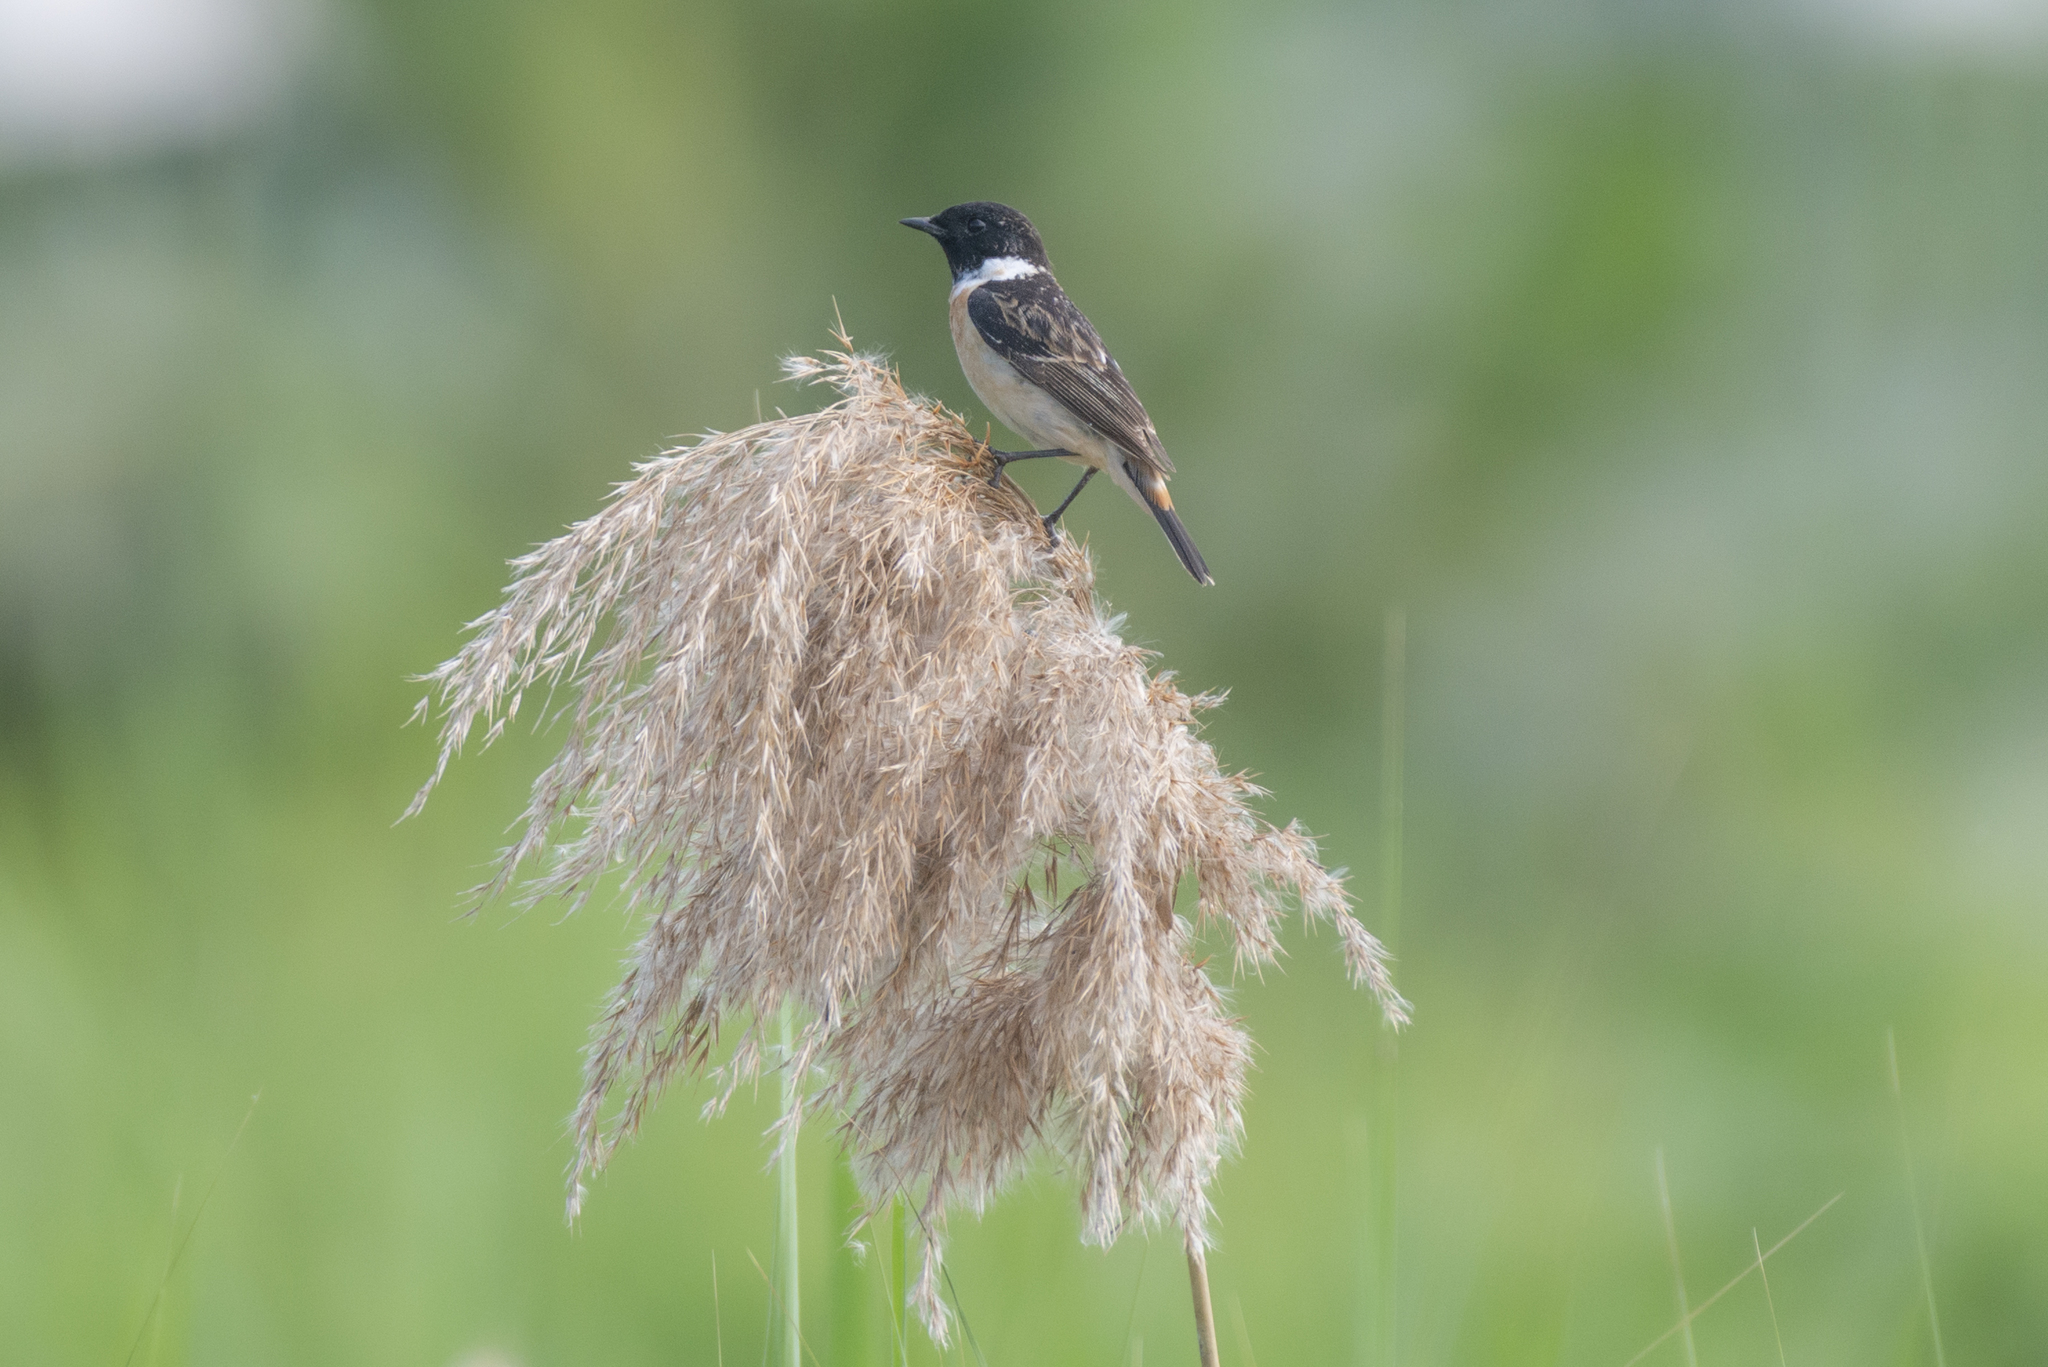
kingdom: Animalia
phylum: Chordata
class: Aves
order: Passeriformes
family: Muscicapidae
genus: Saxicola
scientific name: Saxicola stejnegeri
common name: Stejneger's stonechat
